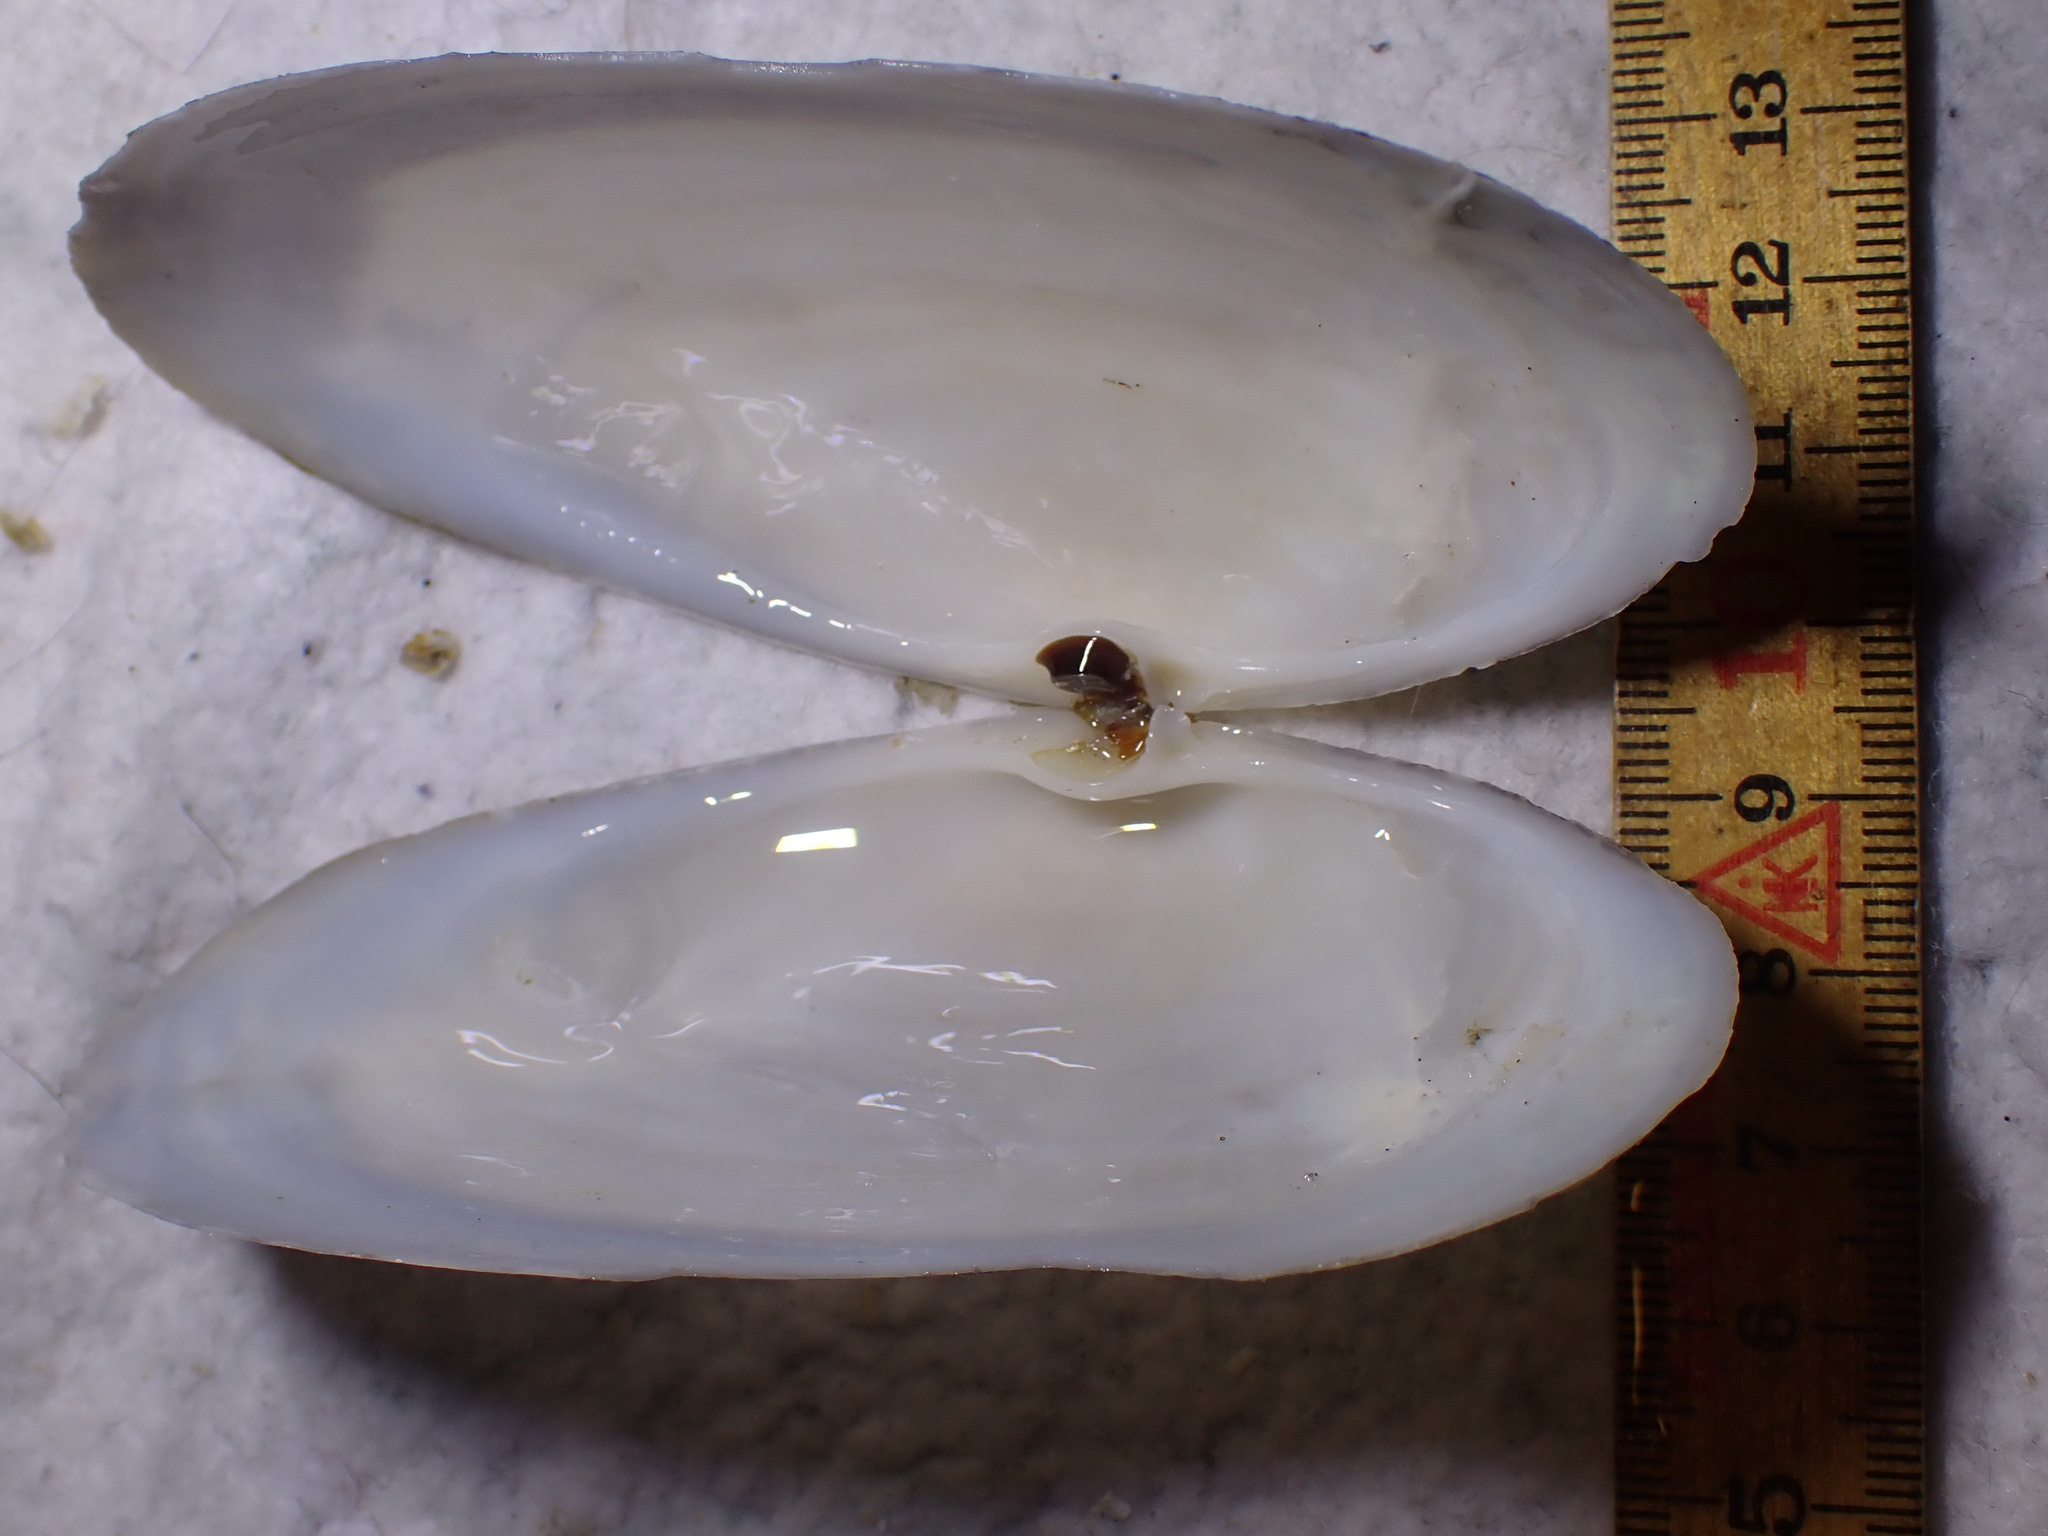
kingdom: Animalia
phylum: Mollusca
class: Bivalvia
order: Venerida
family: Mactridae
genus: Lutraria
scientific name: Lutraria lutraria
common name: Common otter shell
